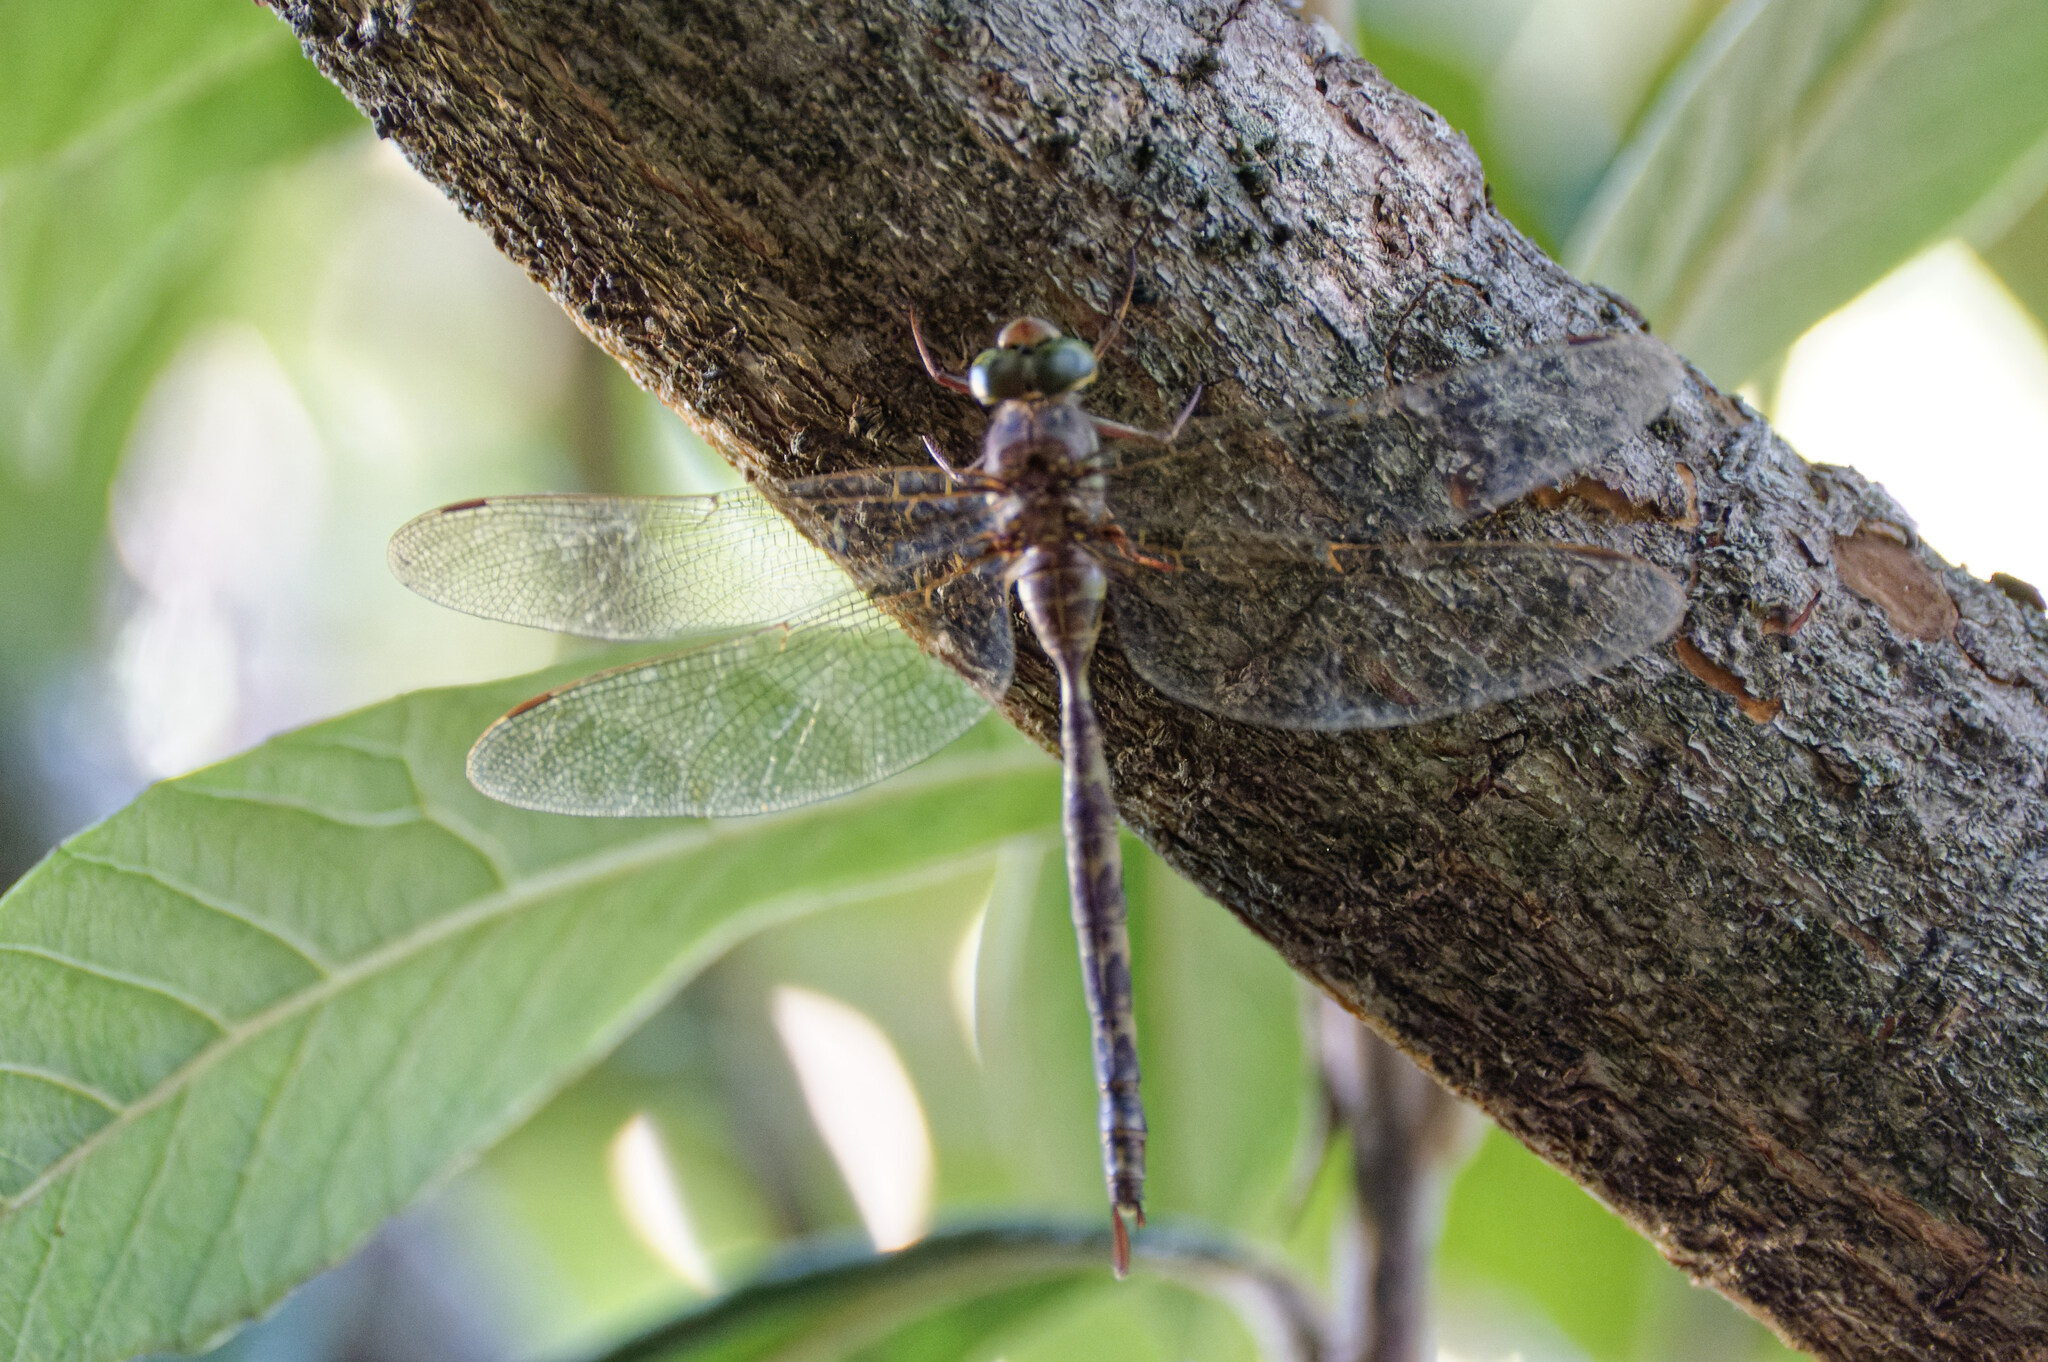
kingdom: Animalia
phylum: Arthropoda
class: Insecta
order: Odonata
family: Aeshnidae
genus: Boyeria
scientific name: Boyeria irene
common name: Western spectre
